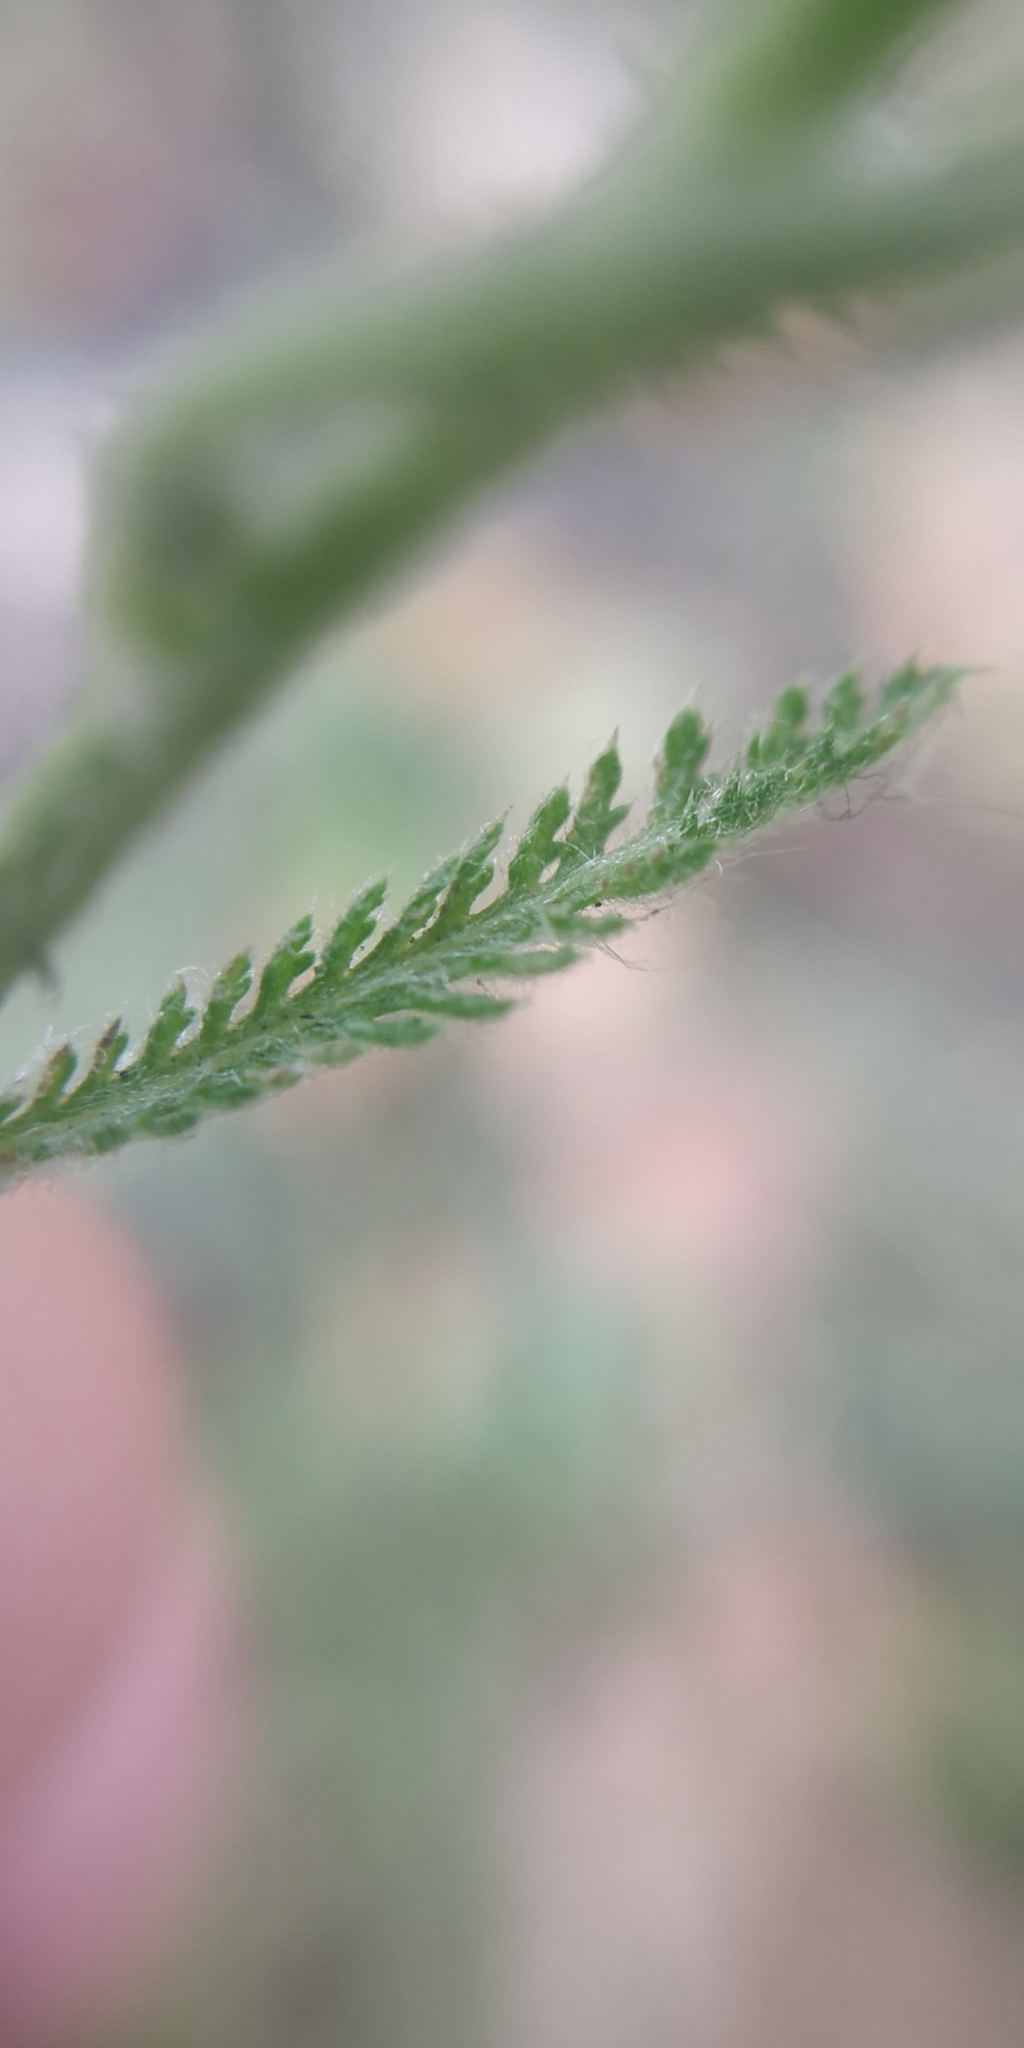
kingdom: Plantae
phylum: Tracheophyta
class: Magnoliopsida
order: Asterales
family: Asteraceae
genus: Achillea
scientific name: Achillea millefolium
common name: Yarrow
